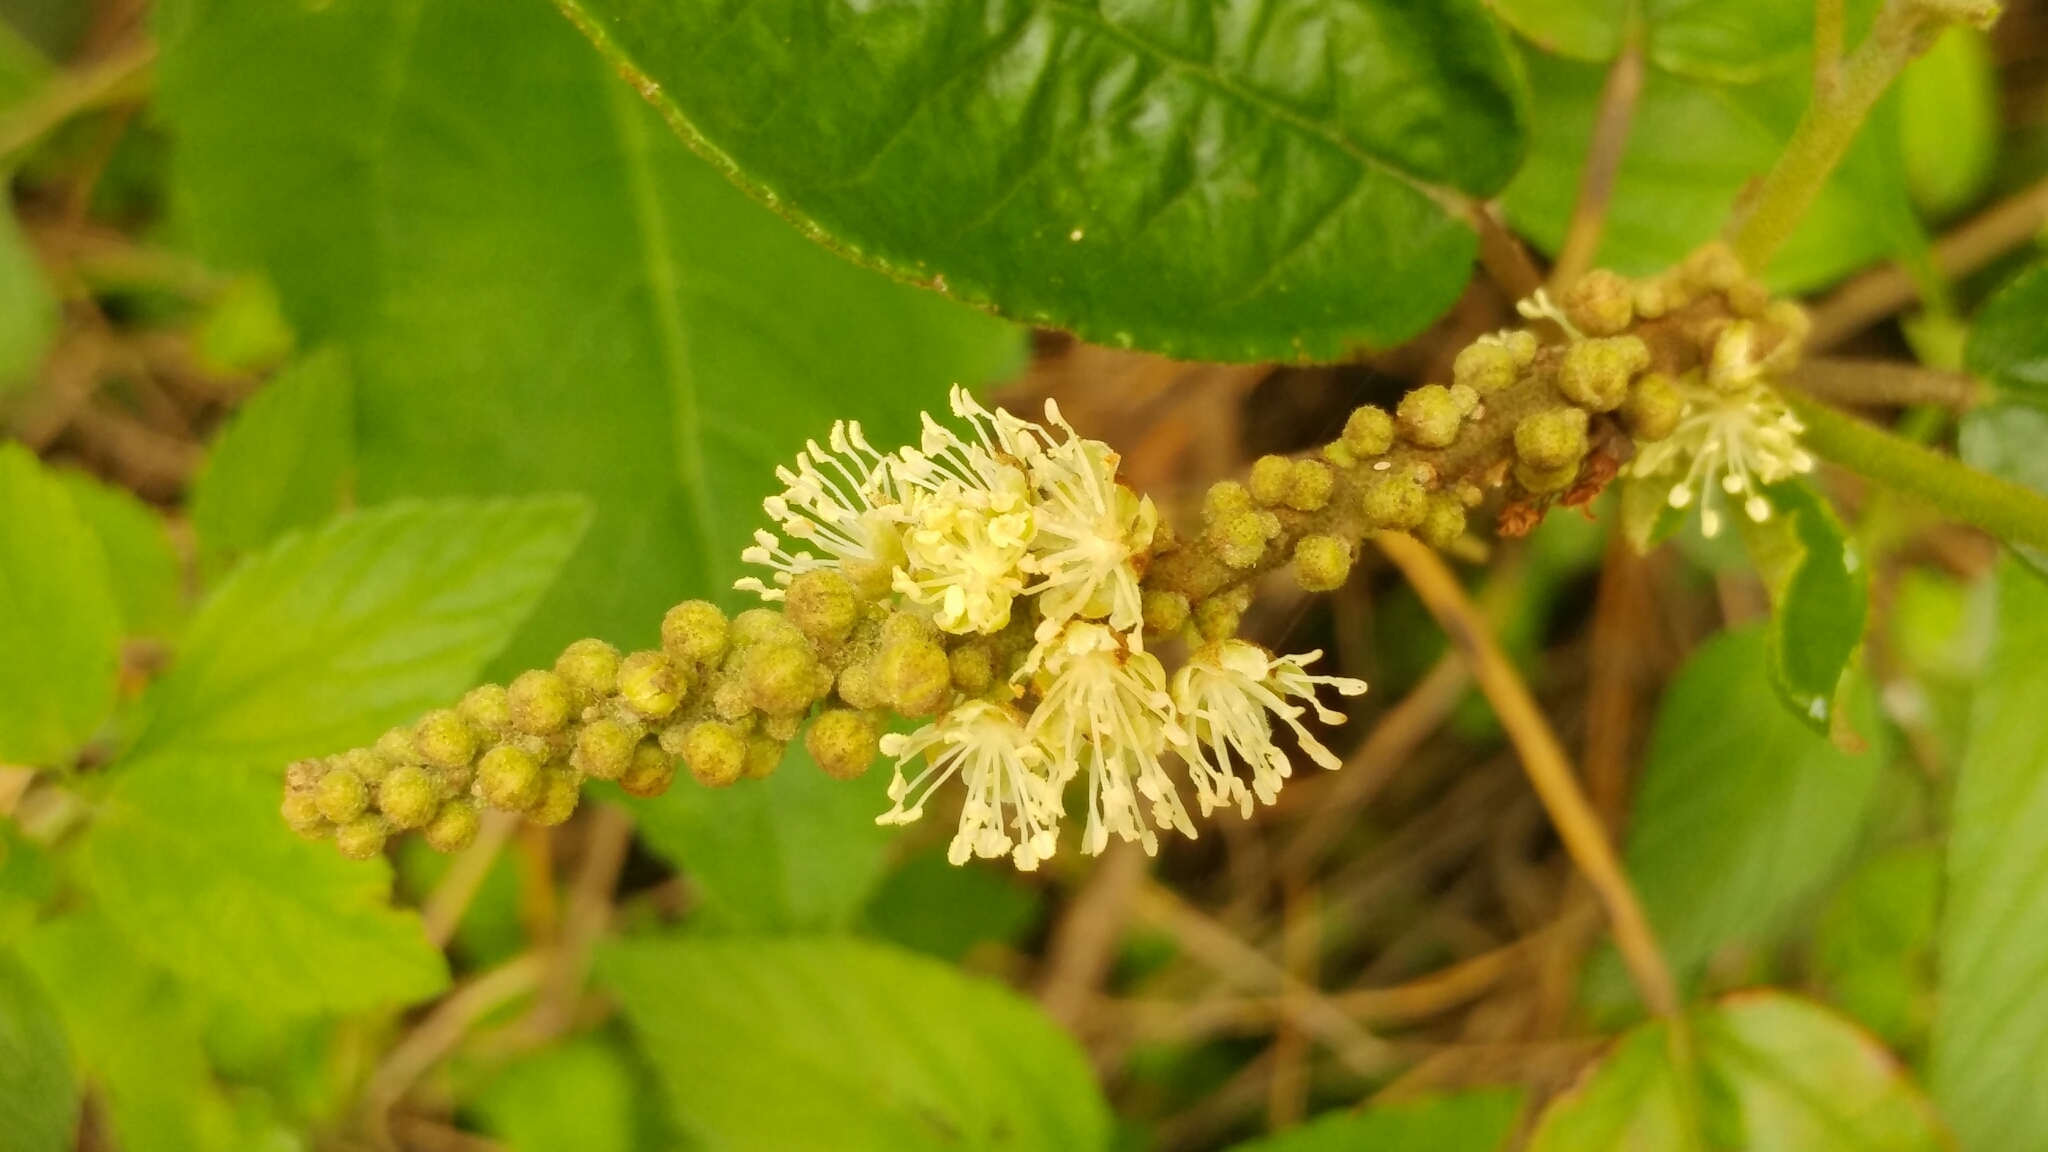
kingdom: Plantae
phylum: Tracheophyta
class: Magnoliopsida
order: Malpighiales
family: Euphorbiaceae
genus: Croton
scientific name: Croton cortesianus
